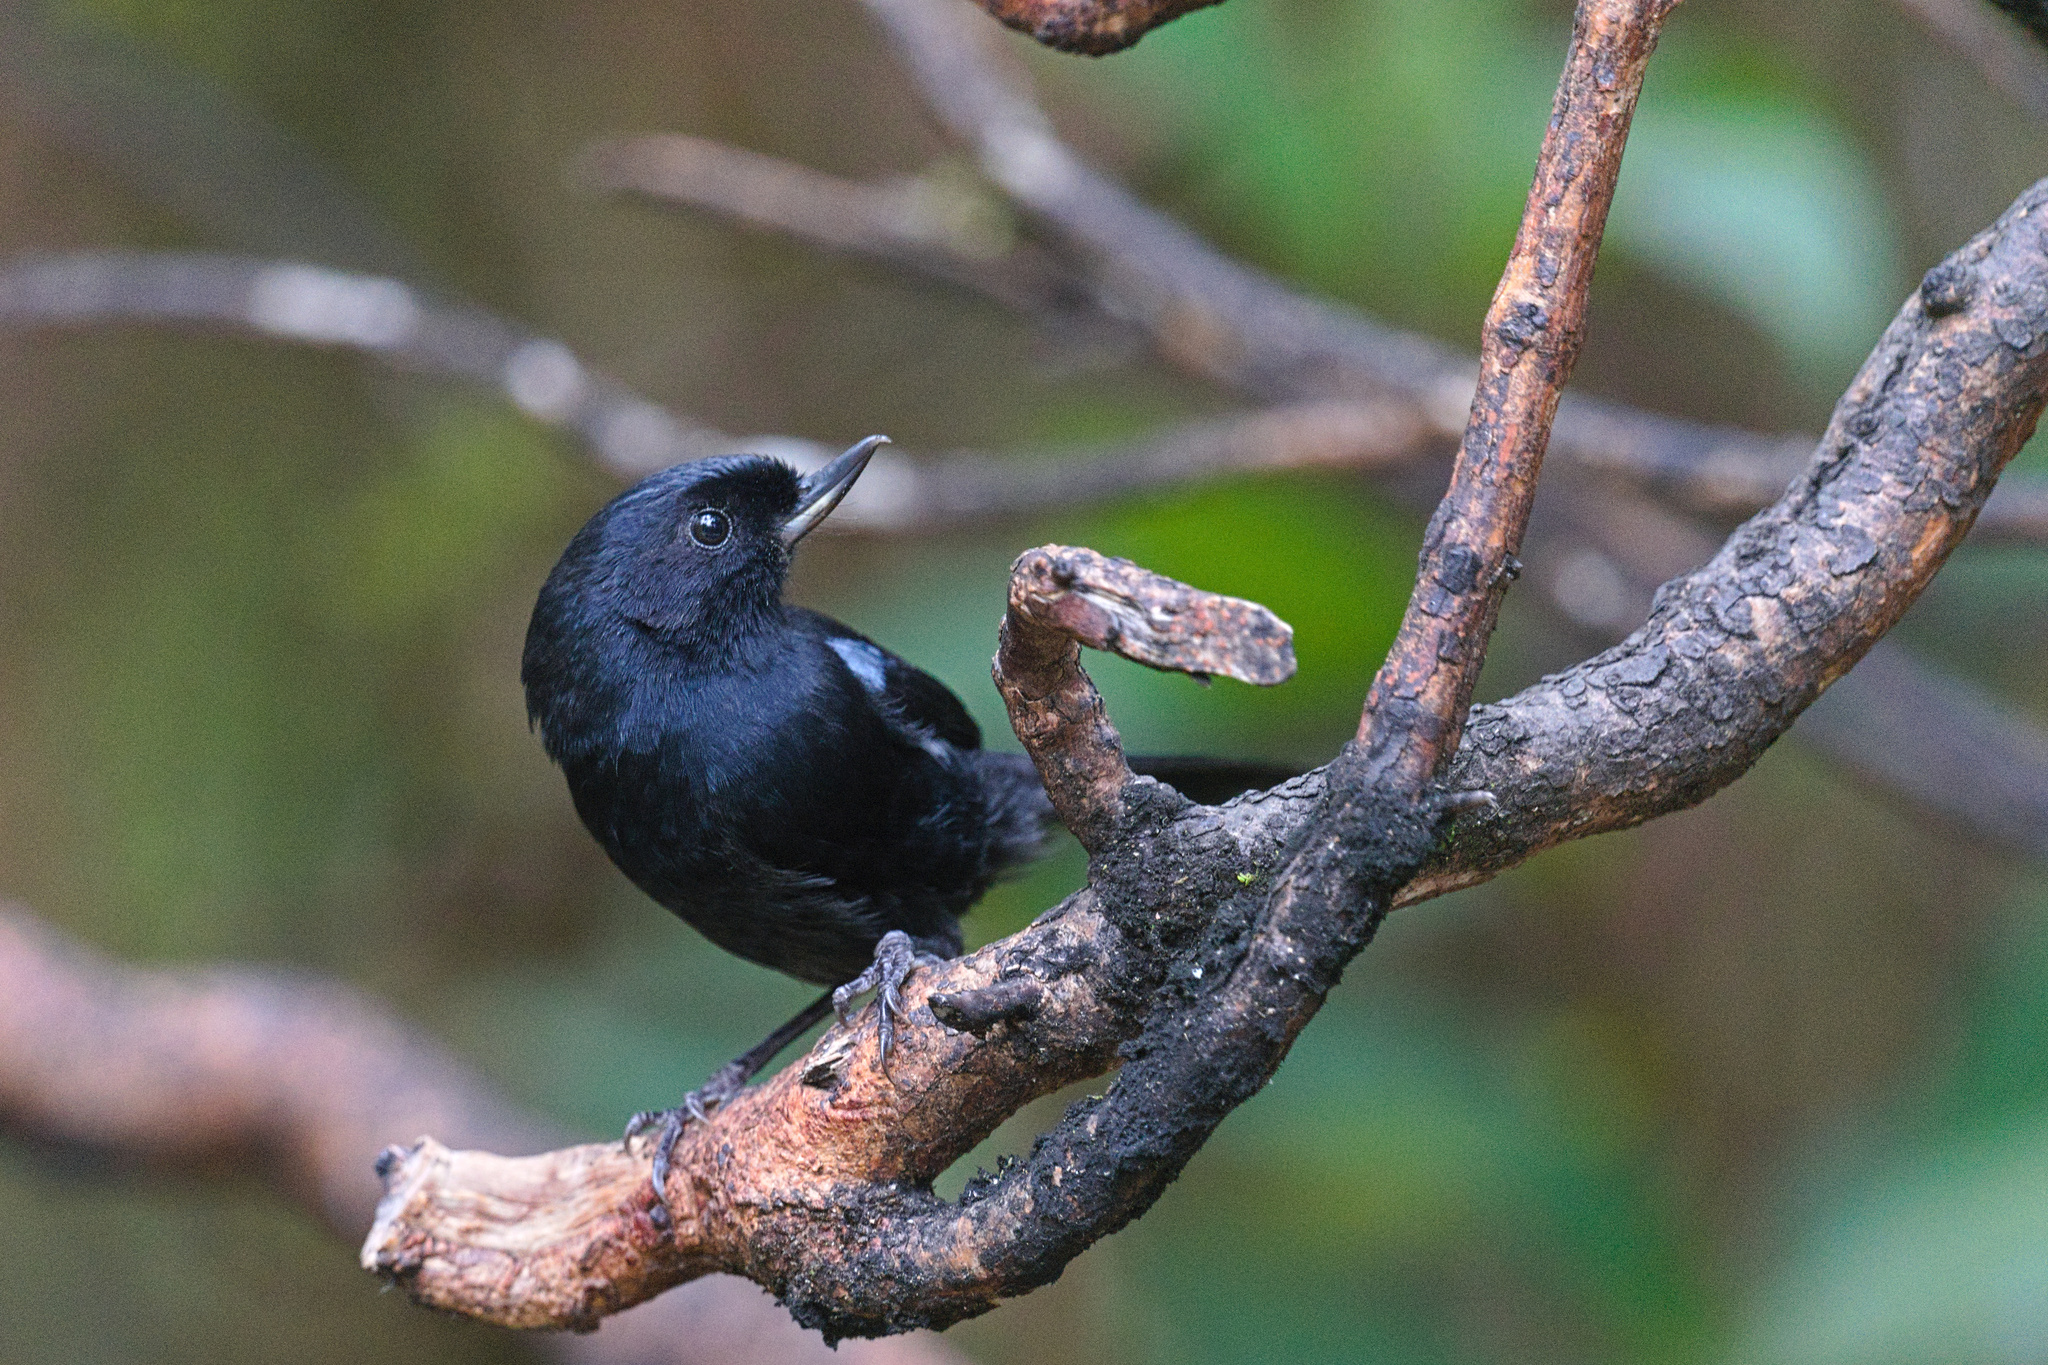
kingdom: Animalia
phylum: Chordata
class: Aves
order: Passeriformes
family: Thraupidae
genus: Diglossa
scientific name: Diglossa lafresnayii
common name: Glossy flowerpiercer
